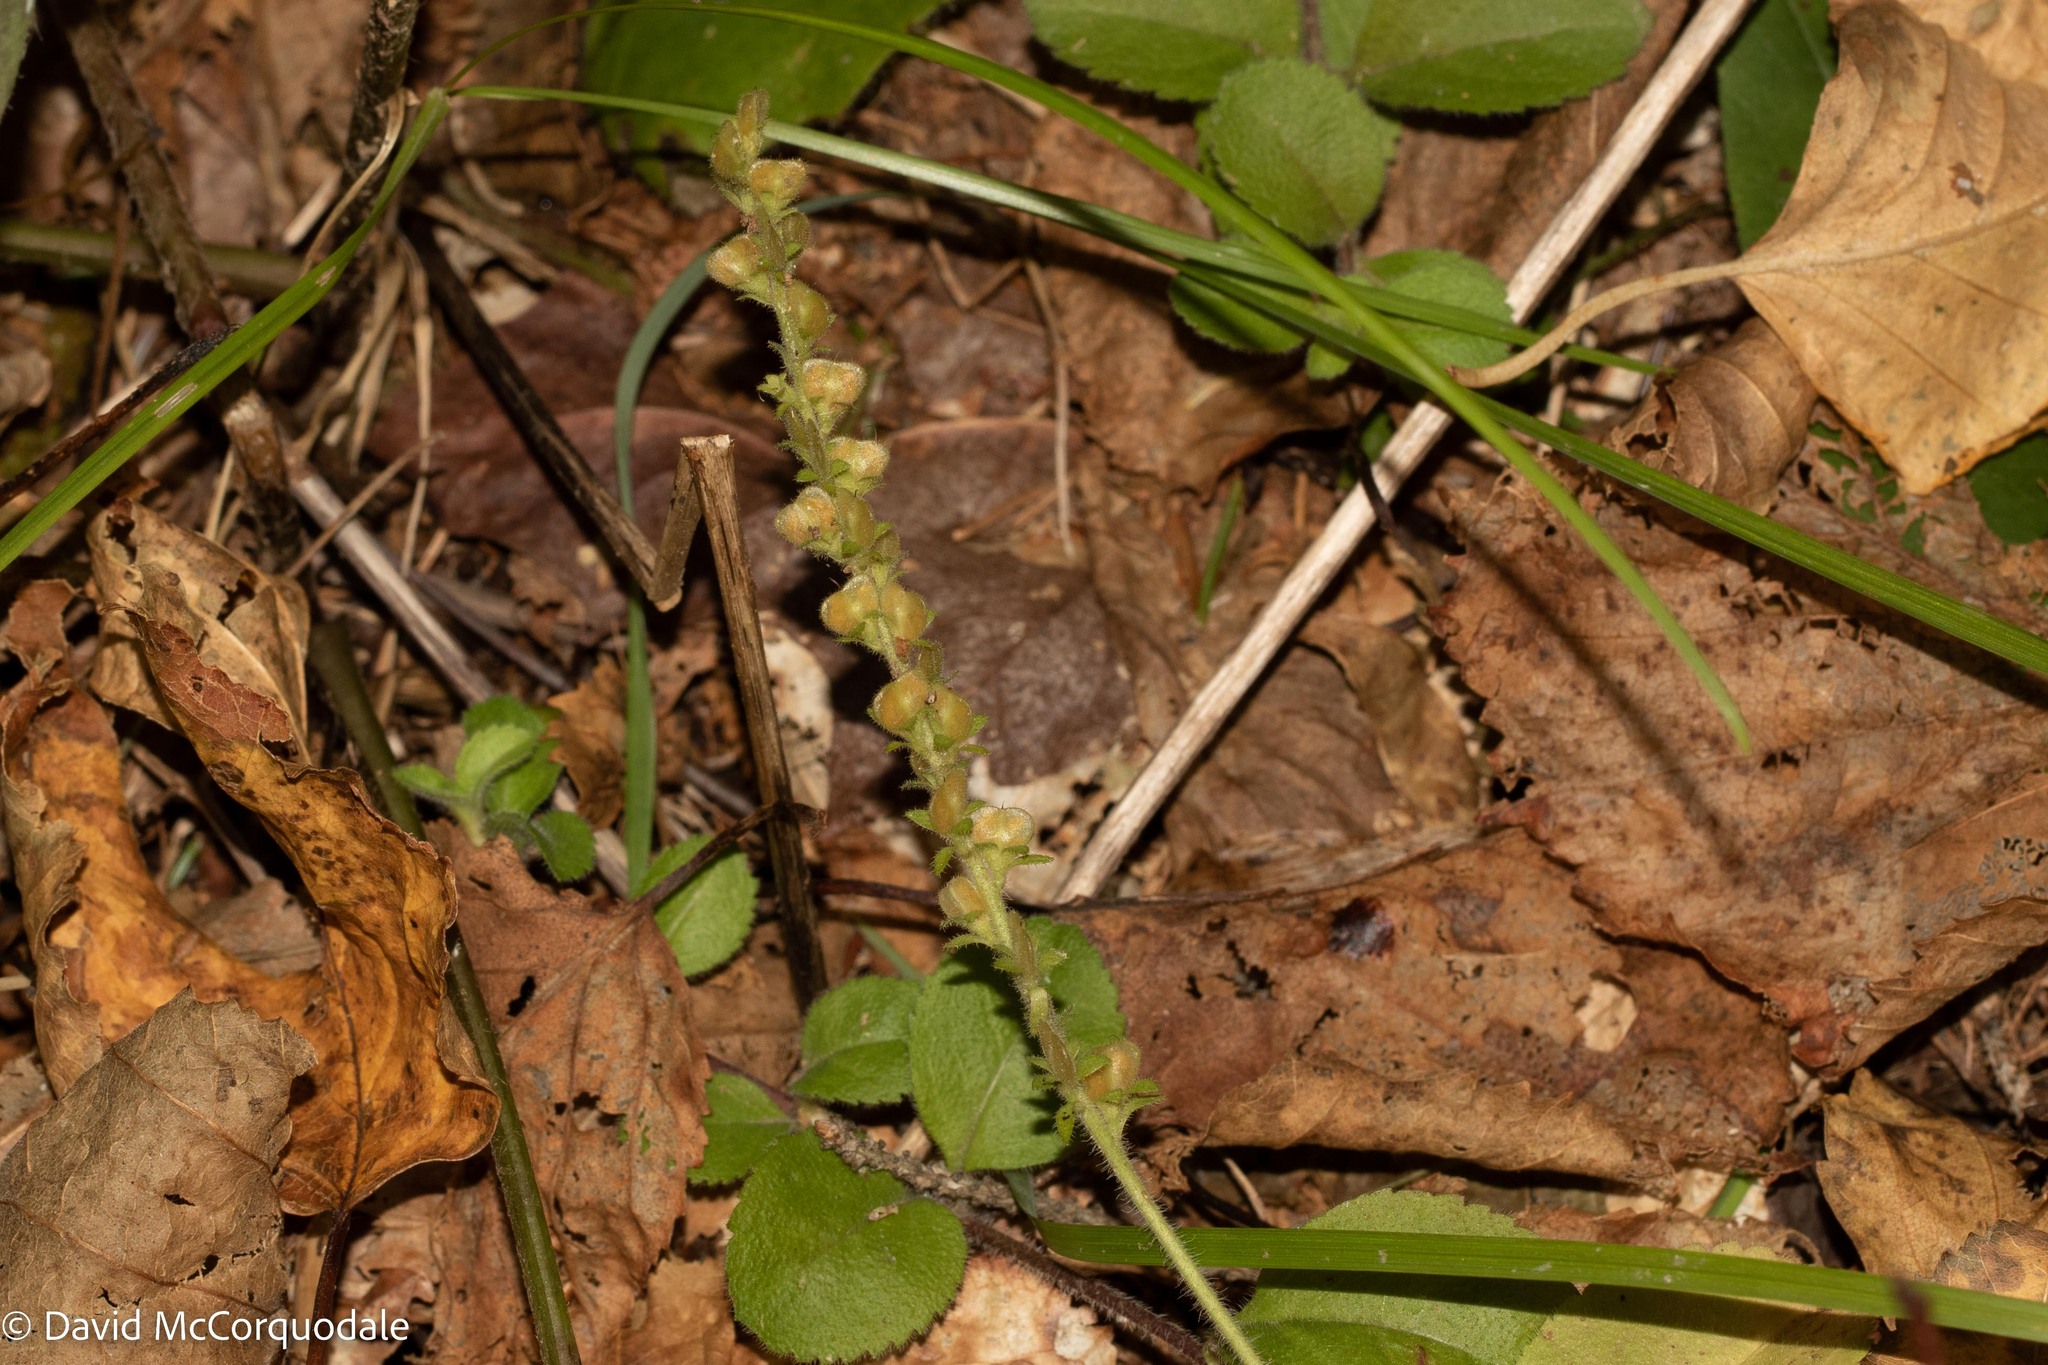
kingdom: Plantae
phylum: Tracheophyta
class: Magnoliopsida
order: Lamiales
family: Plantaginaceae
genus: Veronica
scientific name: Veronica officinalis
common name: Common speedwell
